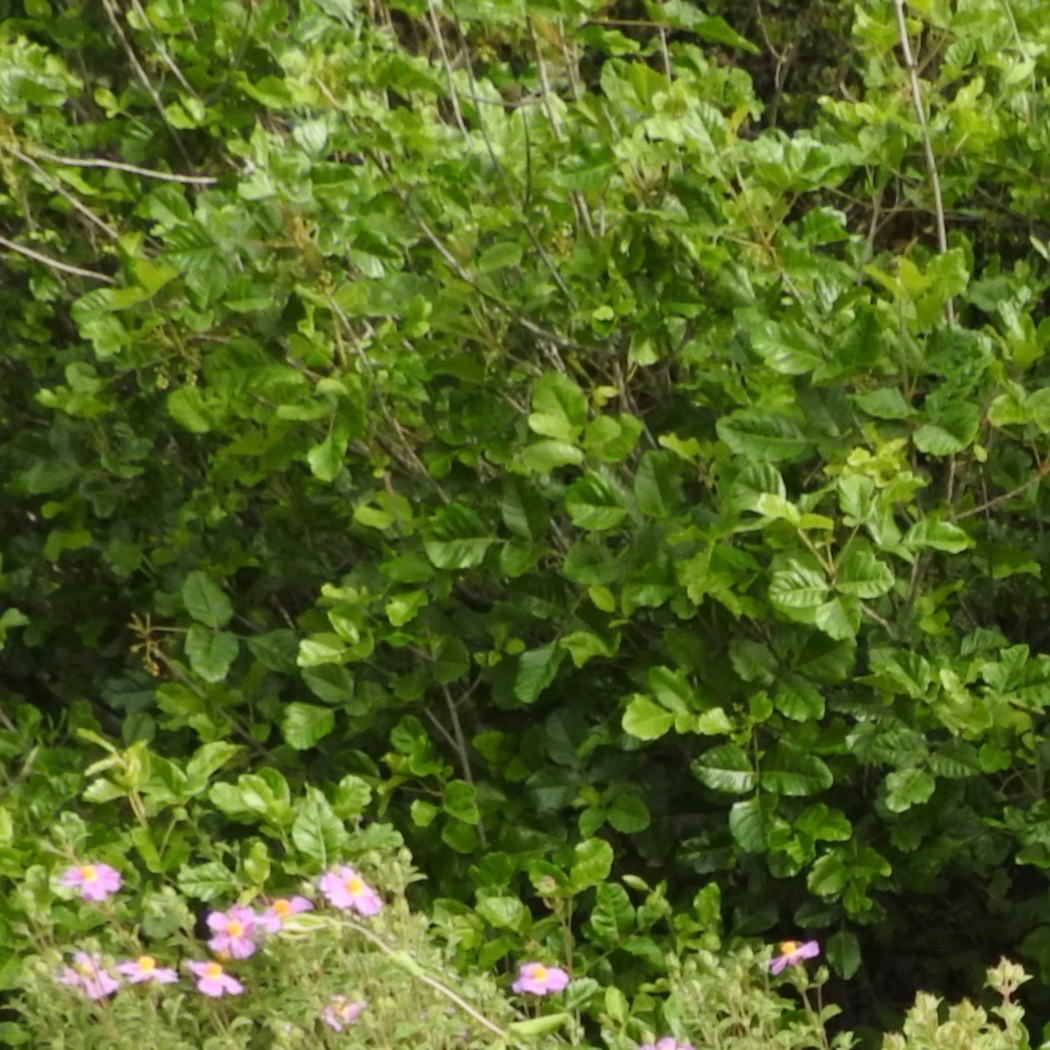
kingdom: Plantae
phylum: Tracheophyta
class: Magnoliopsida
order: Sapindales
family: Anacardiaceae
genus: Toxicodendron
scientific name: Toxicodendron diversilobum
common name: Pacific poison-oak
